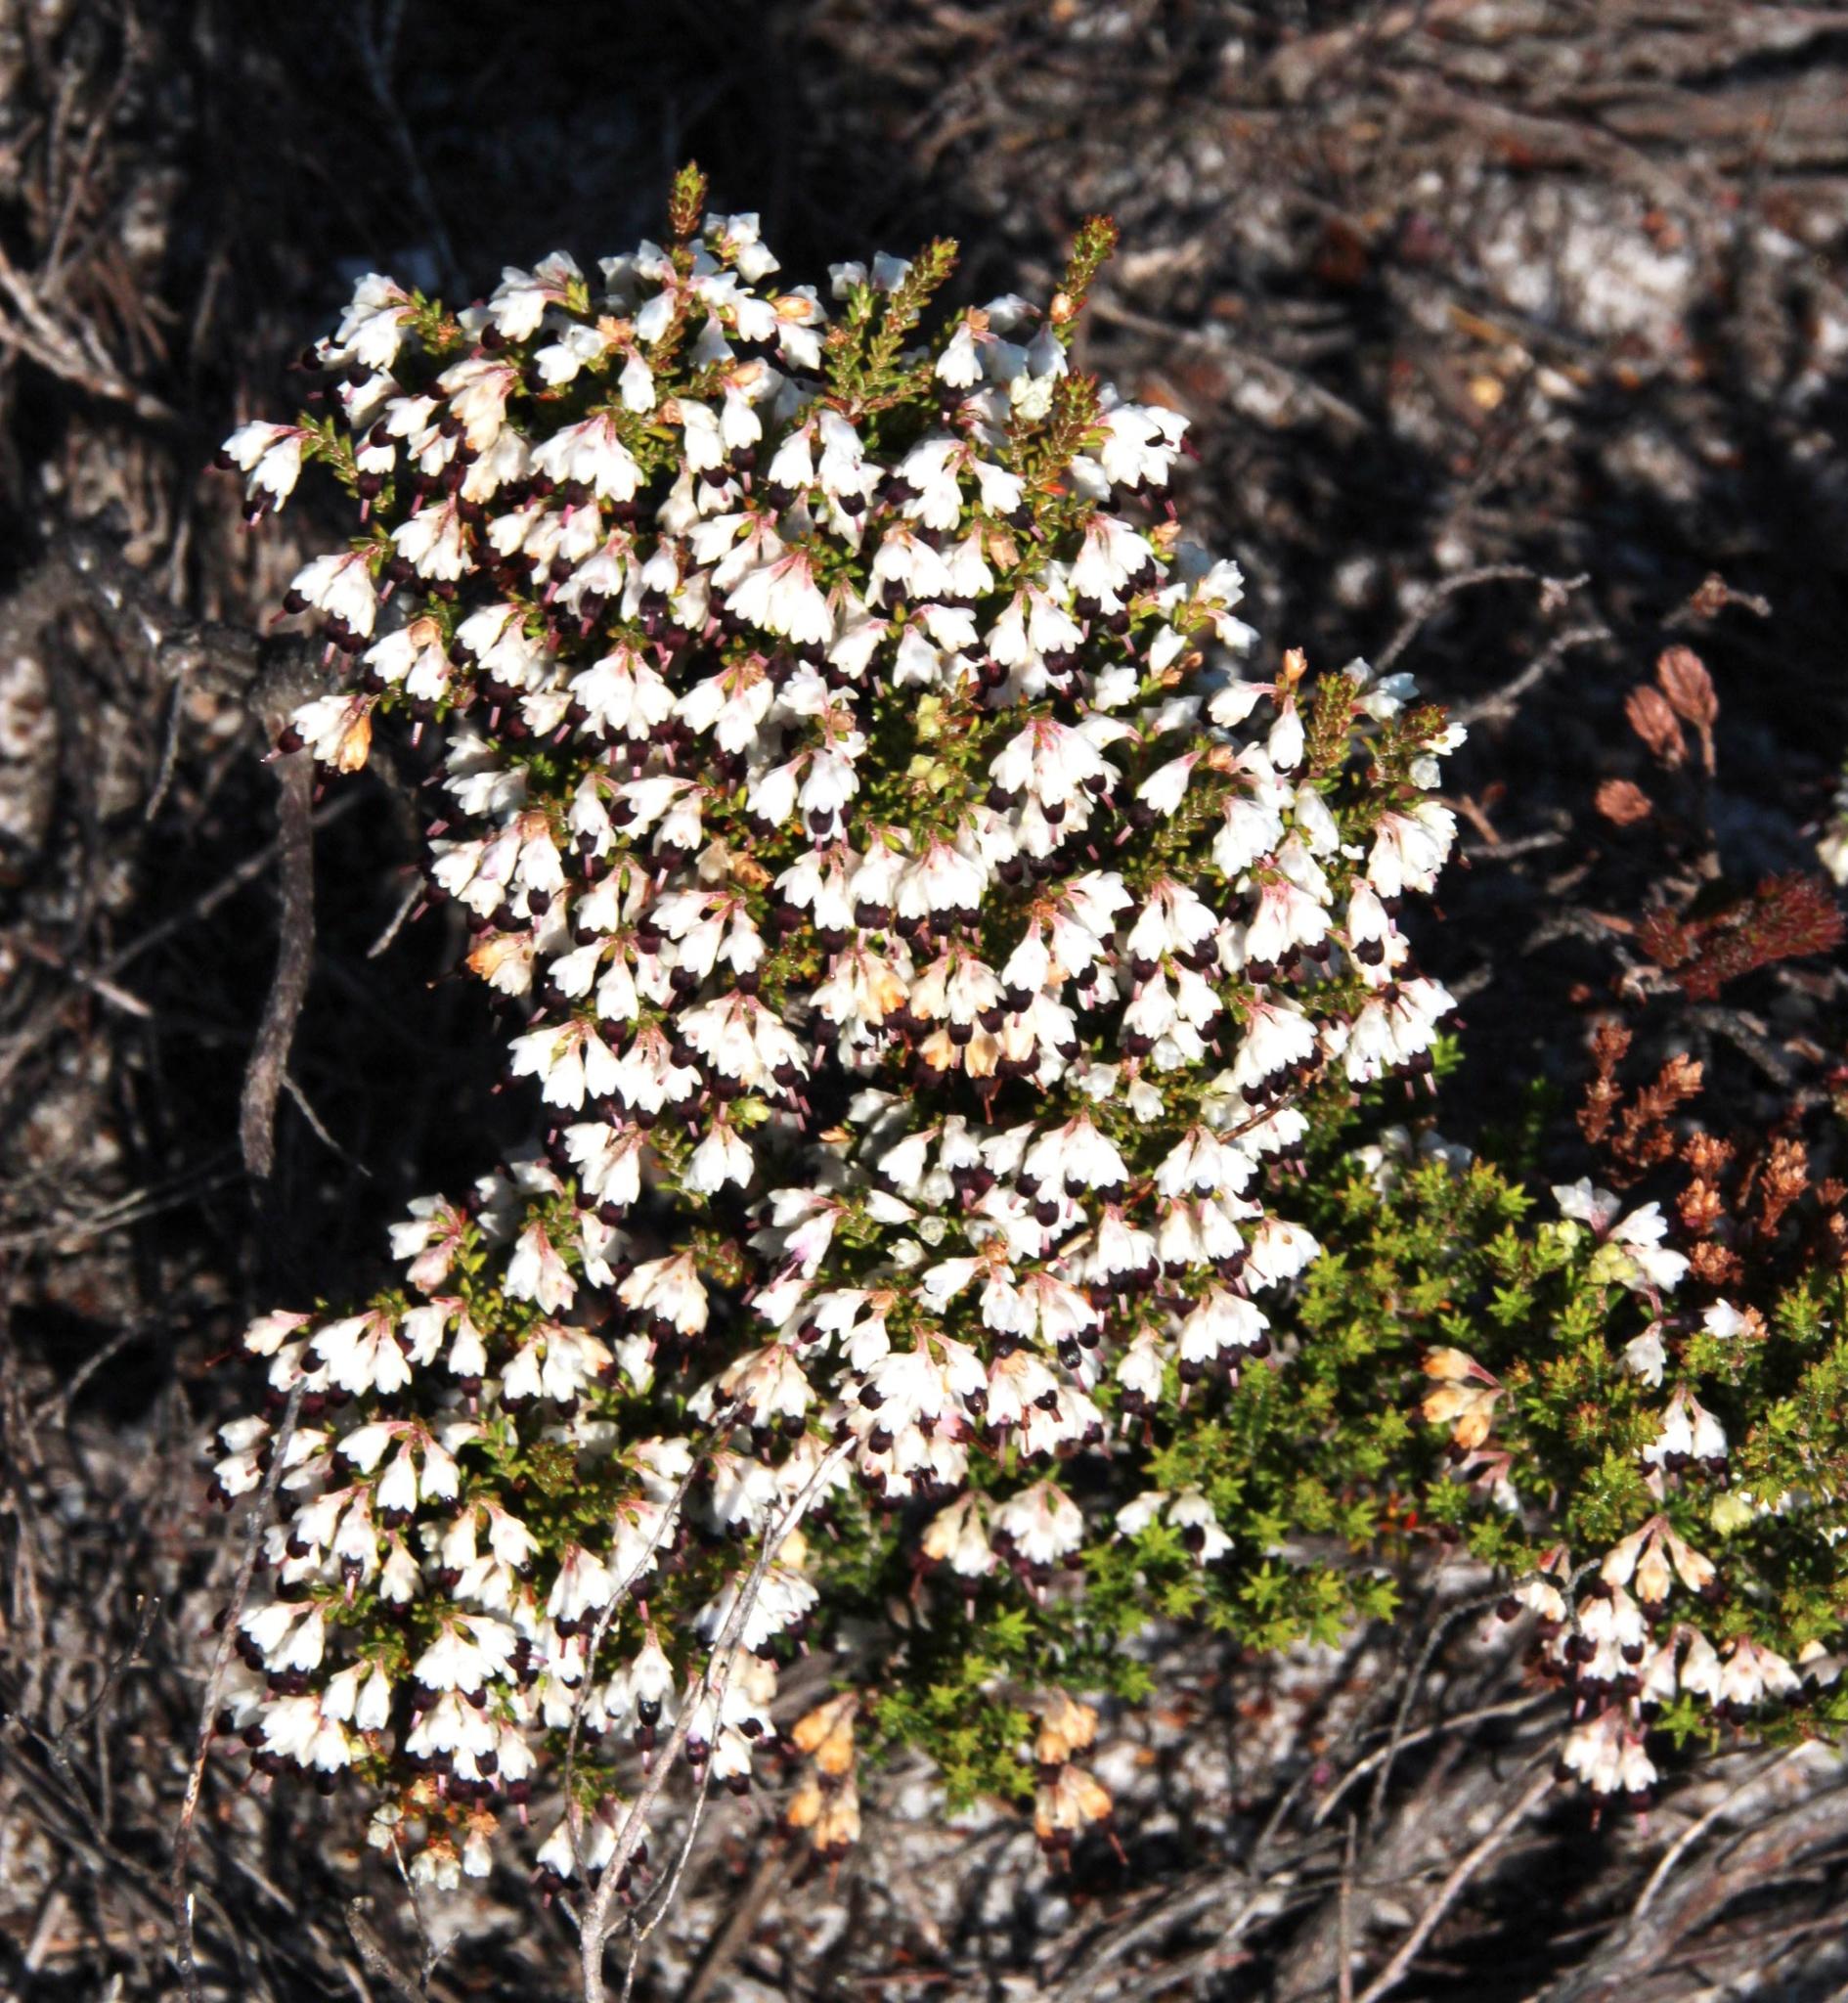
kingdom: Plantae
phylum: Tracheophyta
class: Magnoliopsida
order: Ericales
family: Ericaceae
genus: Erica
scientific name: Erica imbricata
